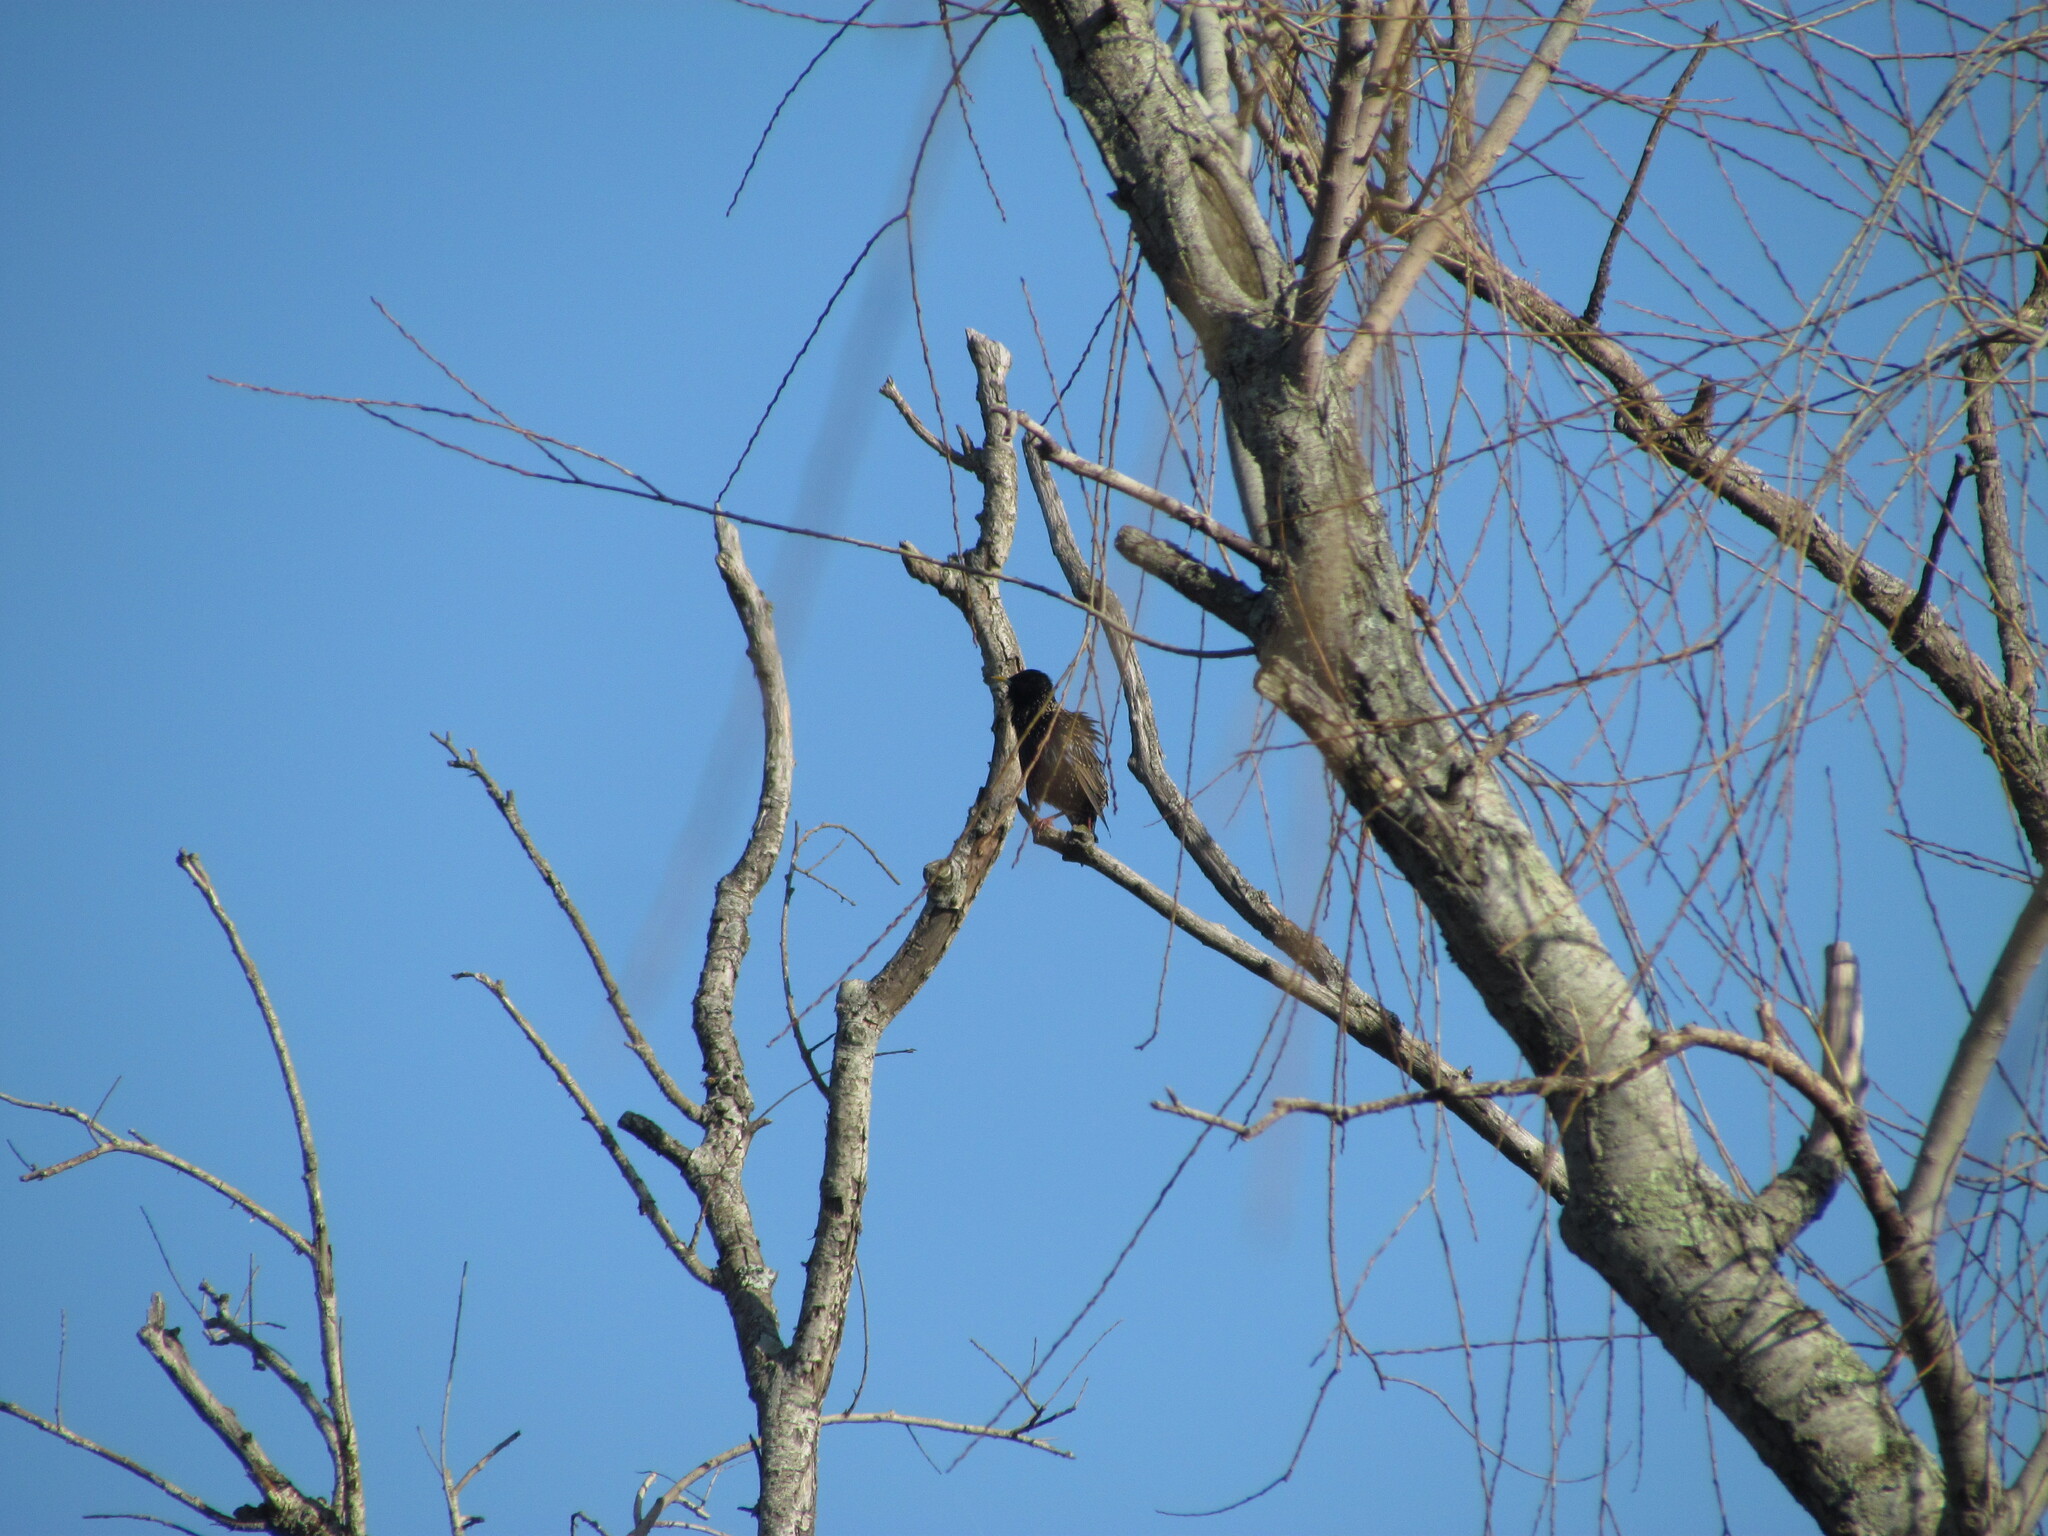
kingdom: Animalia
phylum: Chordata
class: Aves
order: Passeriformes
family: Sturnidae
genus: Sturnus
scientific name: Sturnus vulgaris
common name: Common starling
